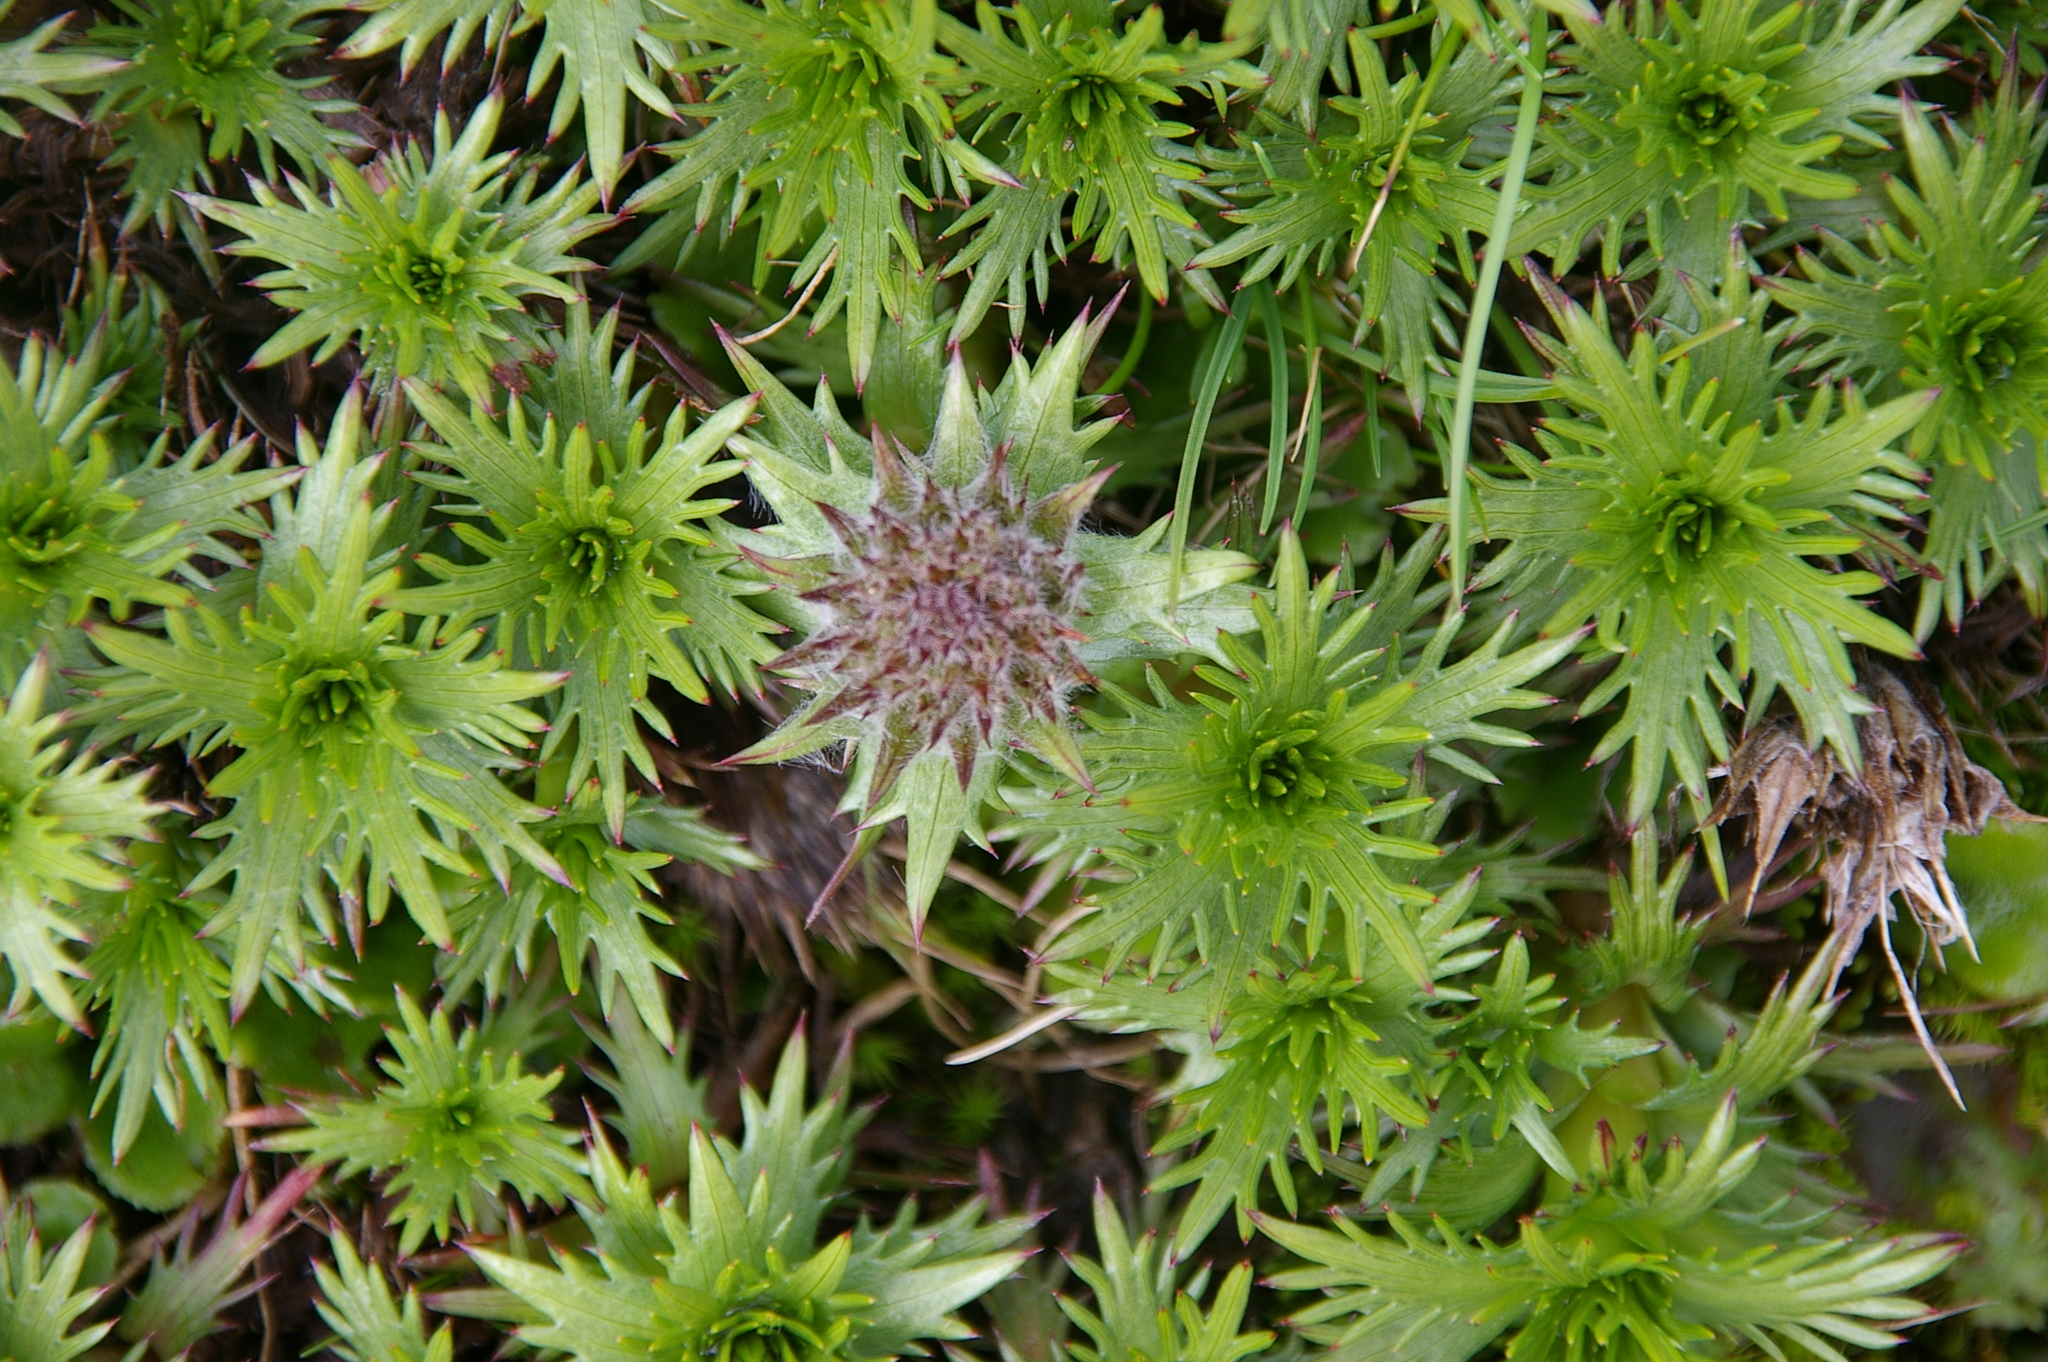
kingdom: Plantae
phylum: Tracheophyta
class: Magnoliopsida
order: Asterales
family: Asteraceae
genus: Nassauvia
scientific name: Nassauvia magellanica
